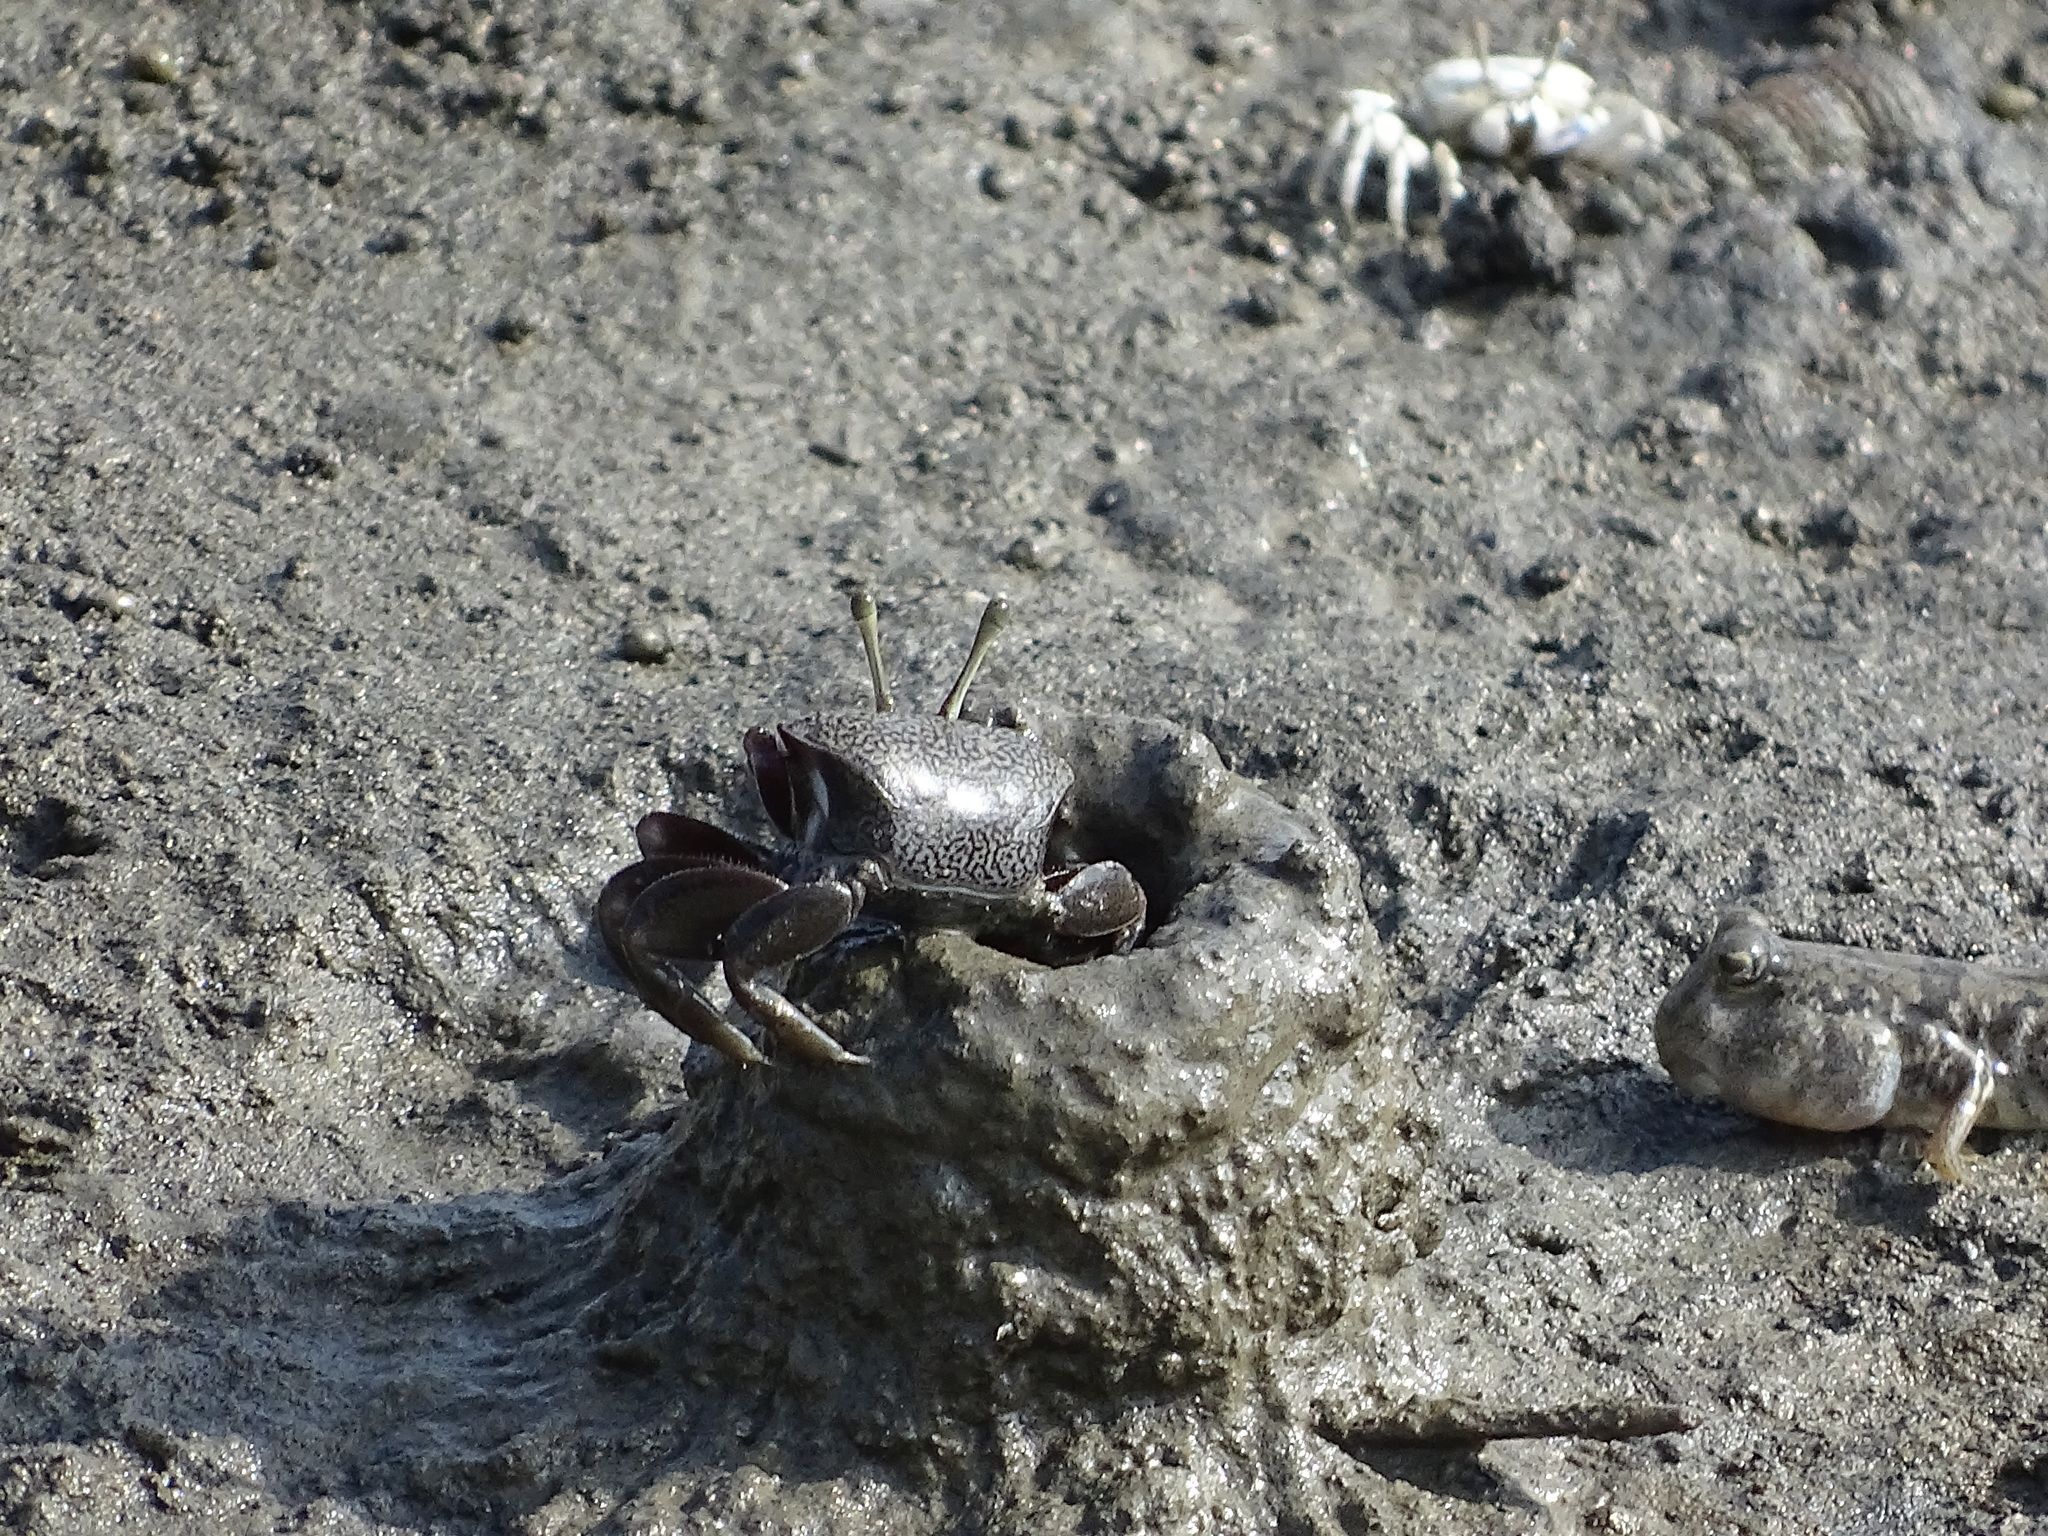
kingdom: Animalia
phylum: Arthropoda
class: Malacostraca
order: Decapoda
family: Ocypodidae
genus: Tubuca
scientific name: Tubuca arcuata
